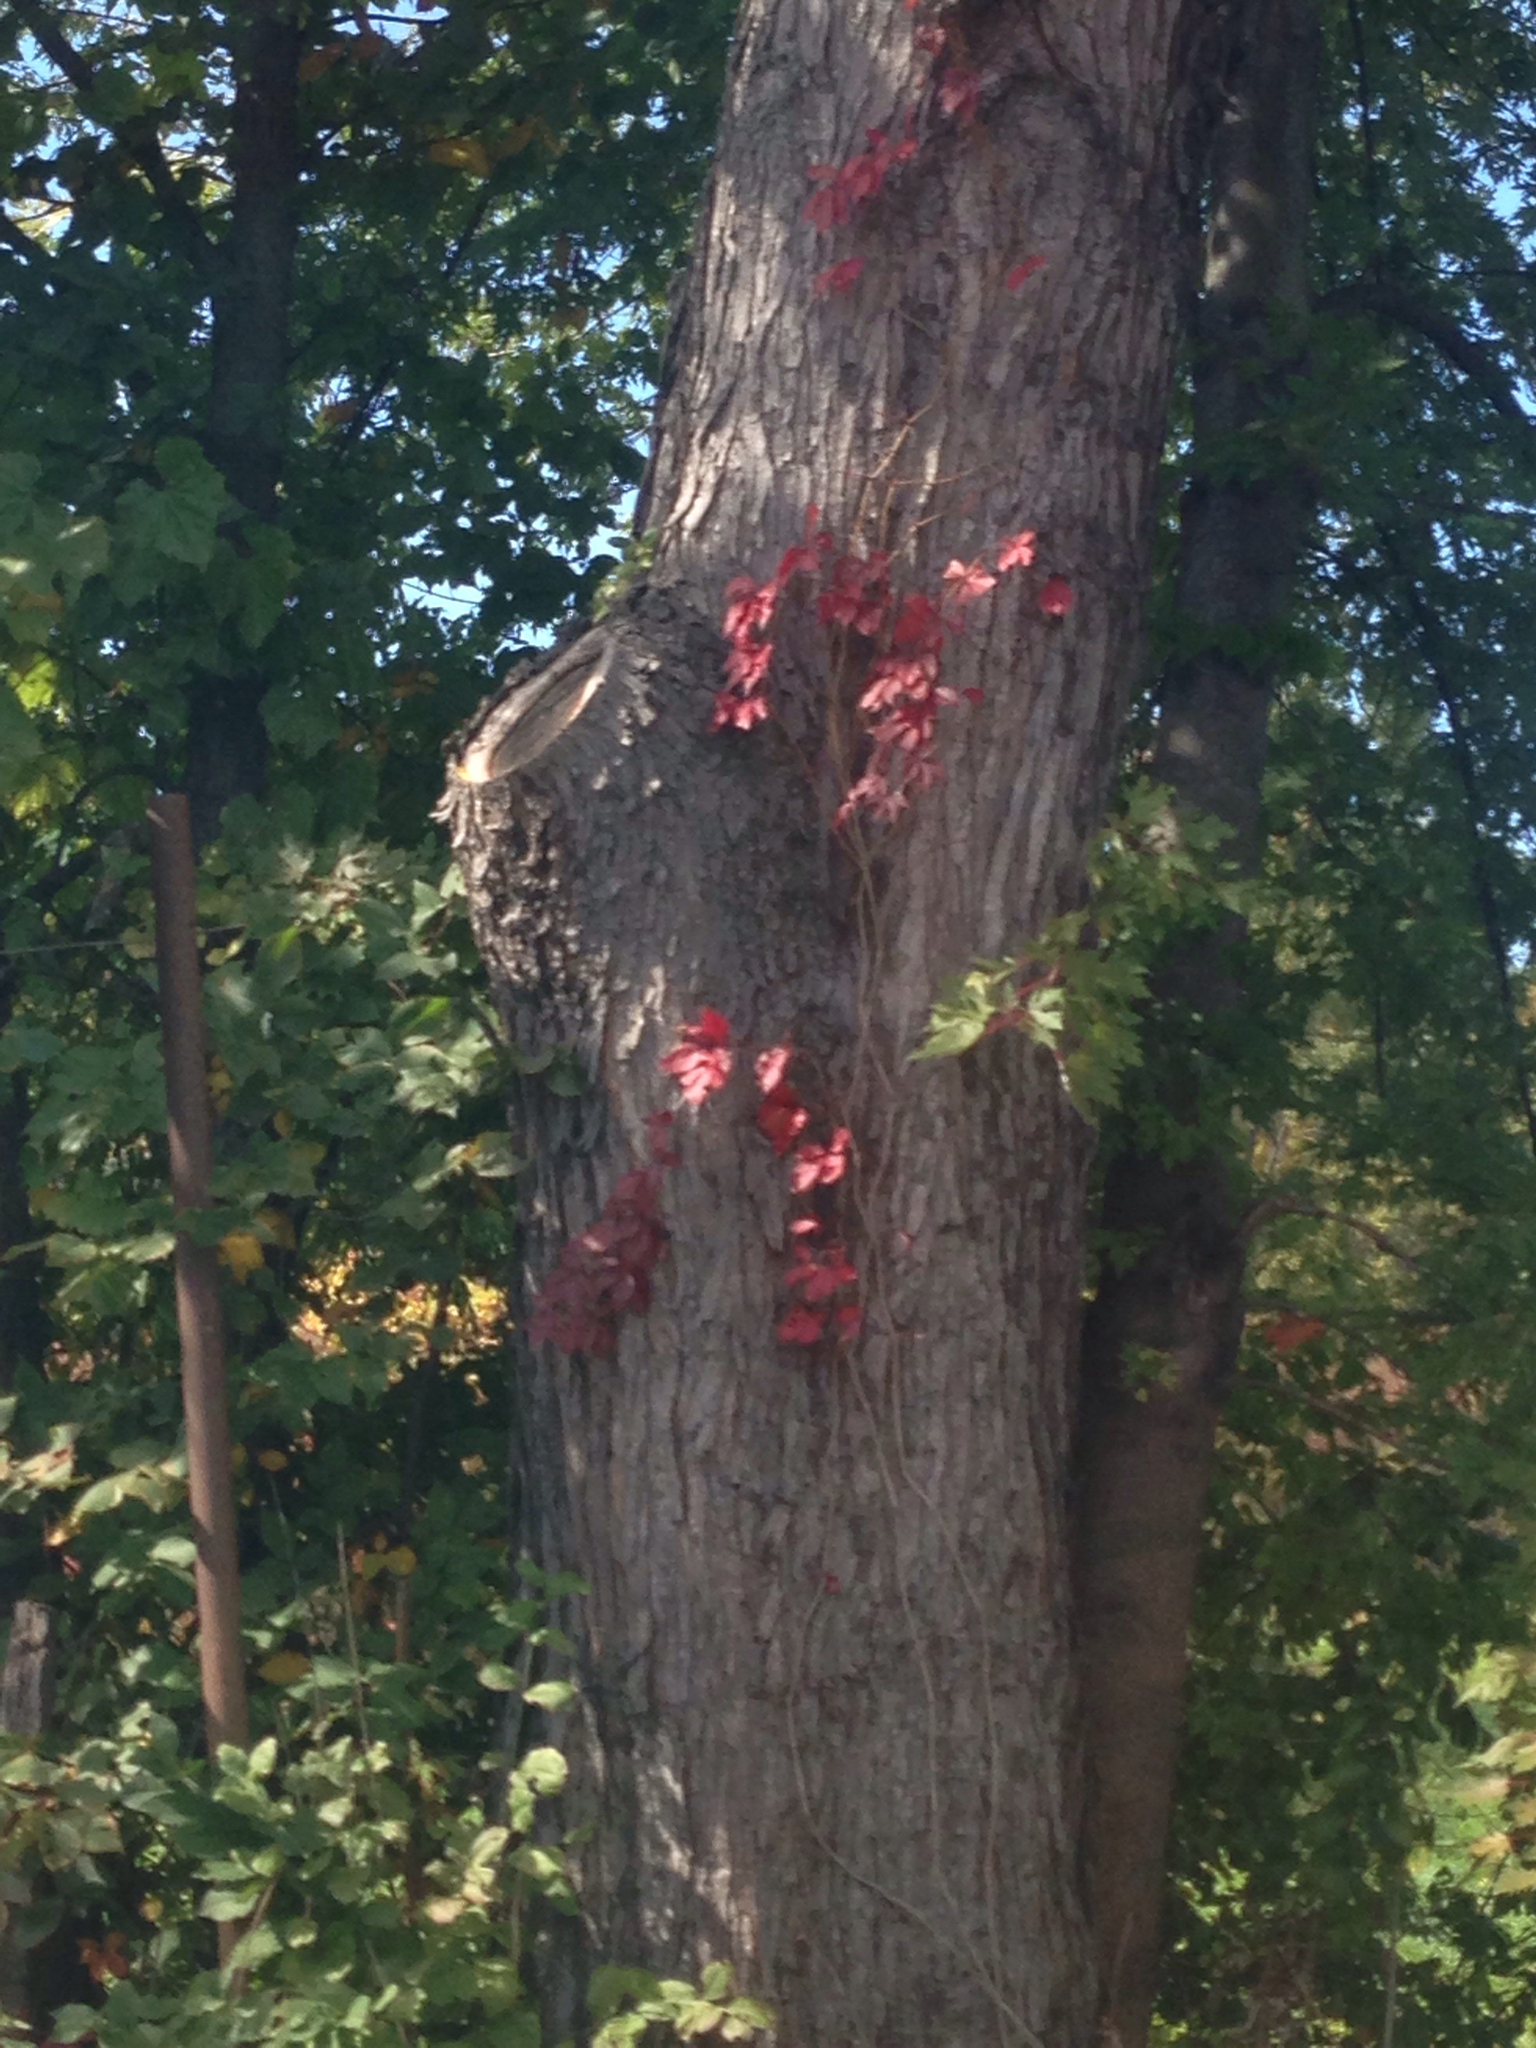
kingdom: Plantae
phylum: Tracheophyta
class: Magnoliopsida
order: Sapindales
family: Sapindaceae
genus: Acer
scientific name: Acer saccharinum
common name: Silver maple
